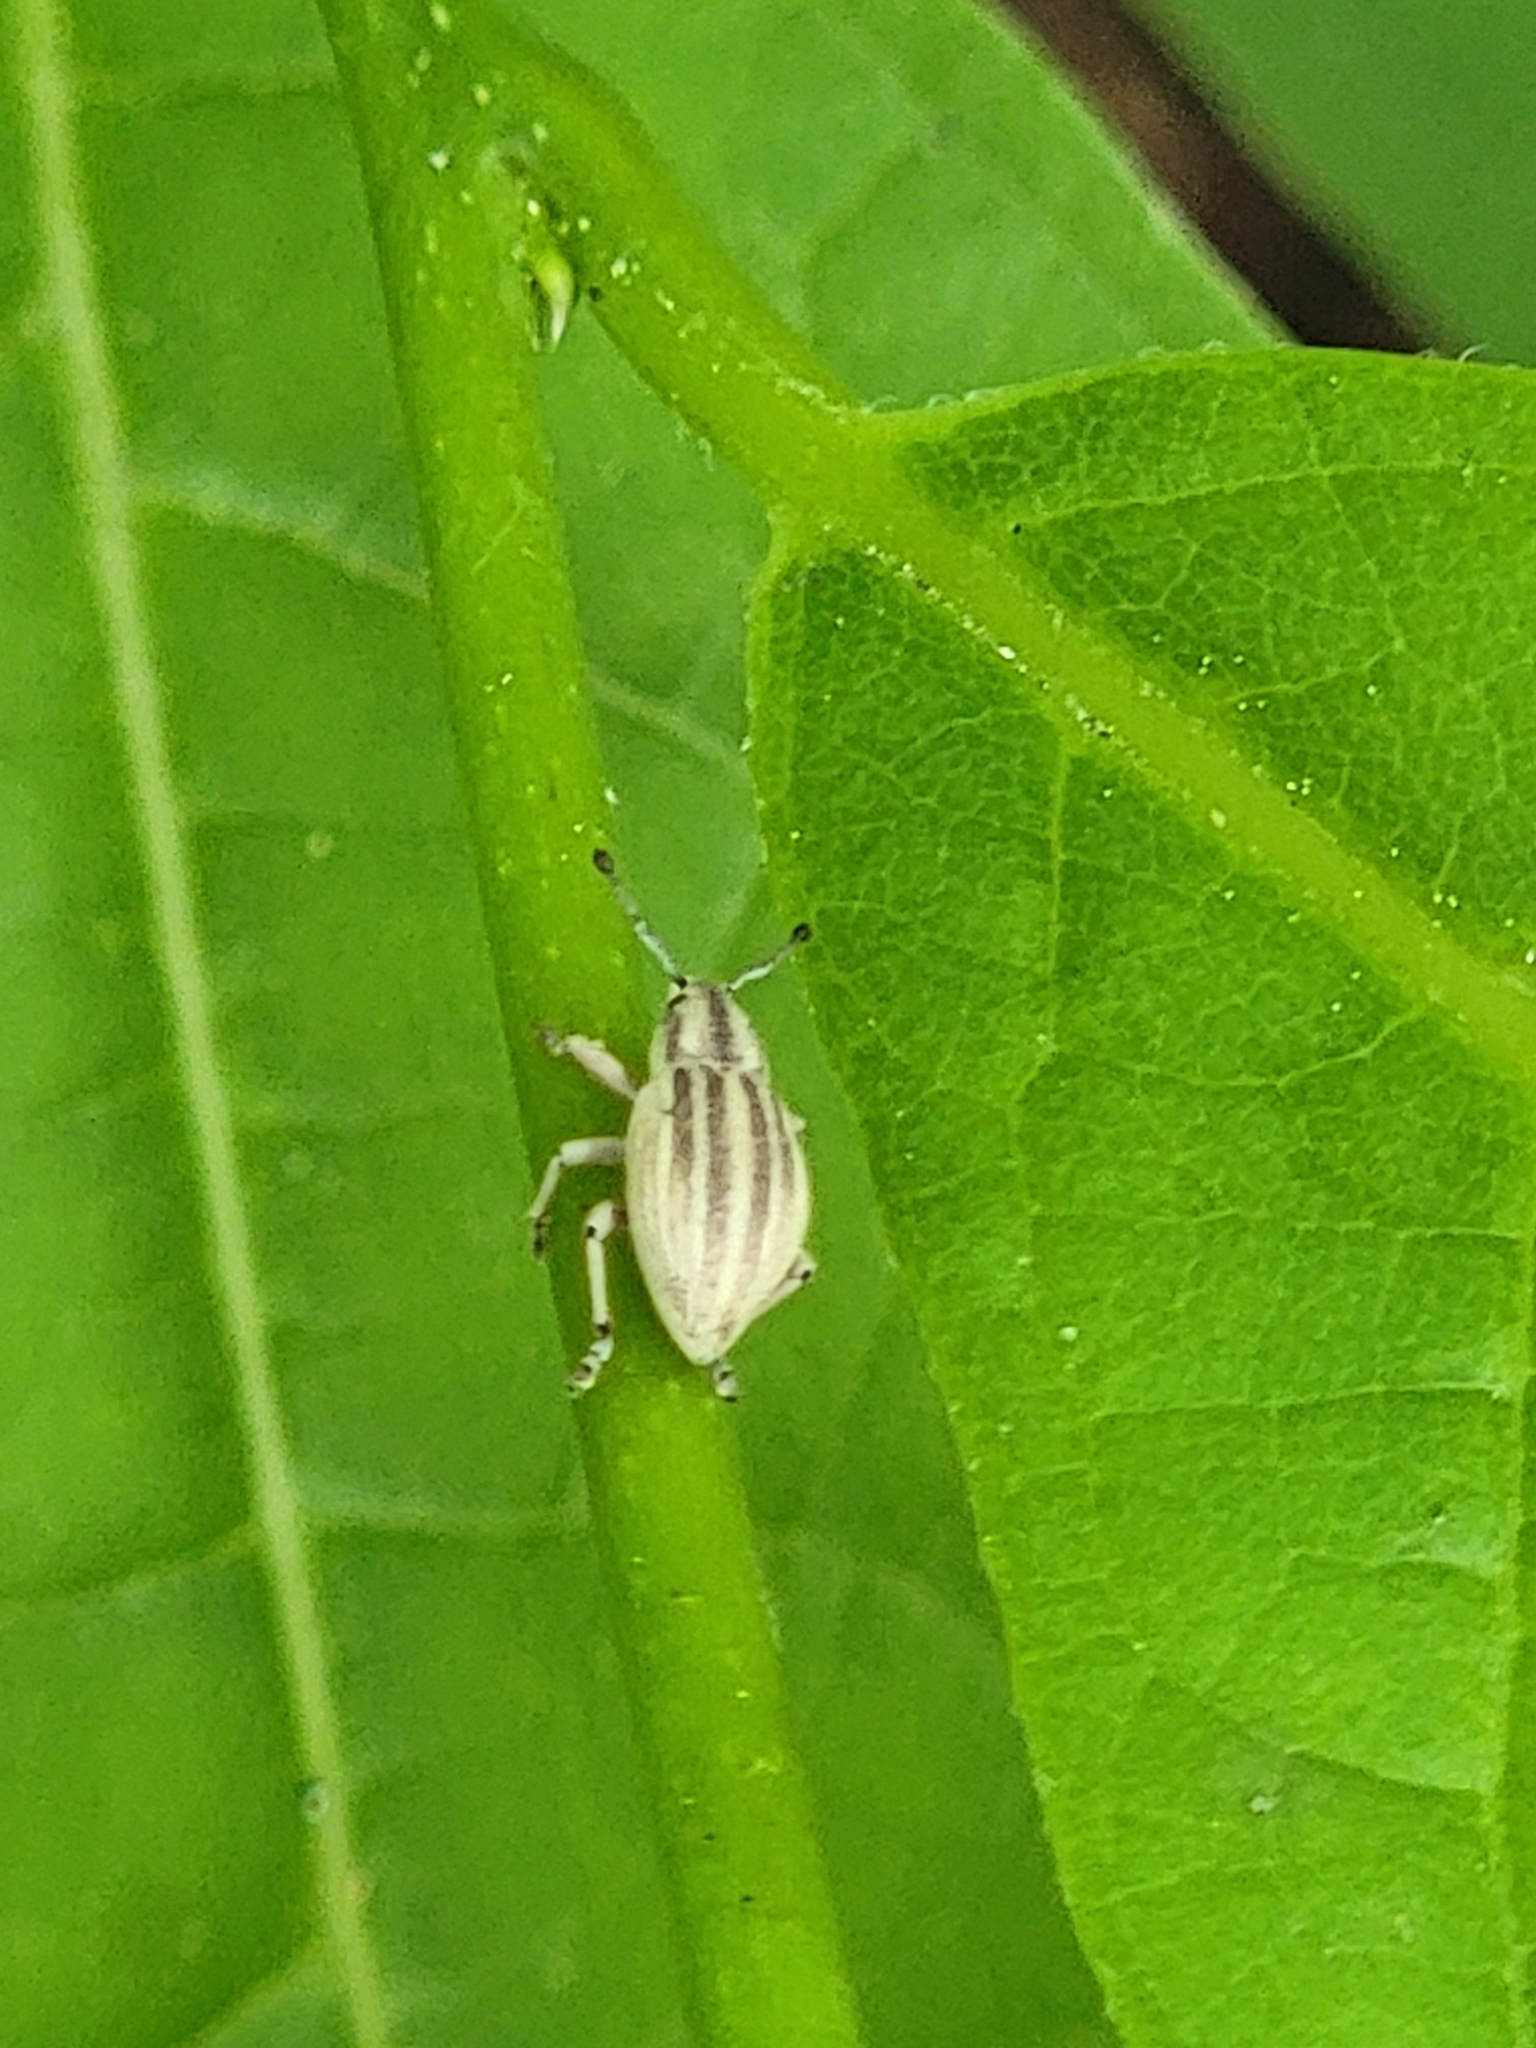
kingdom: Animalia
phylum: Arthropoda
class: Insecta
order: Coleoptera
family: Curculionidae
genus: Aphrastus
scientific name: Aphrastus taeniatus
